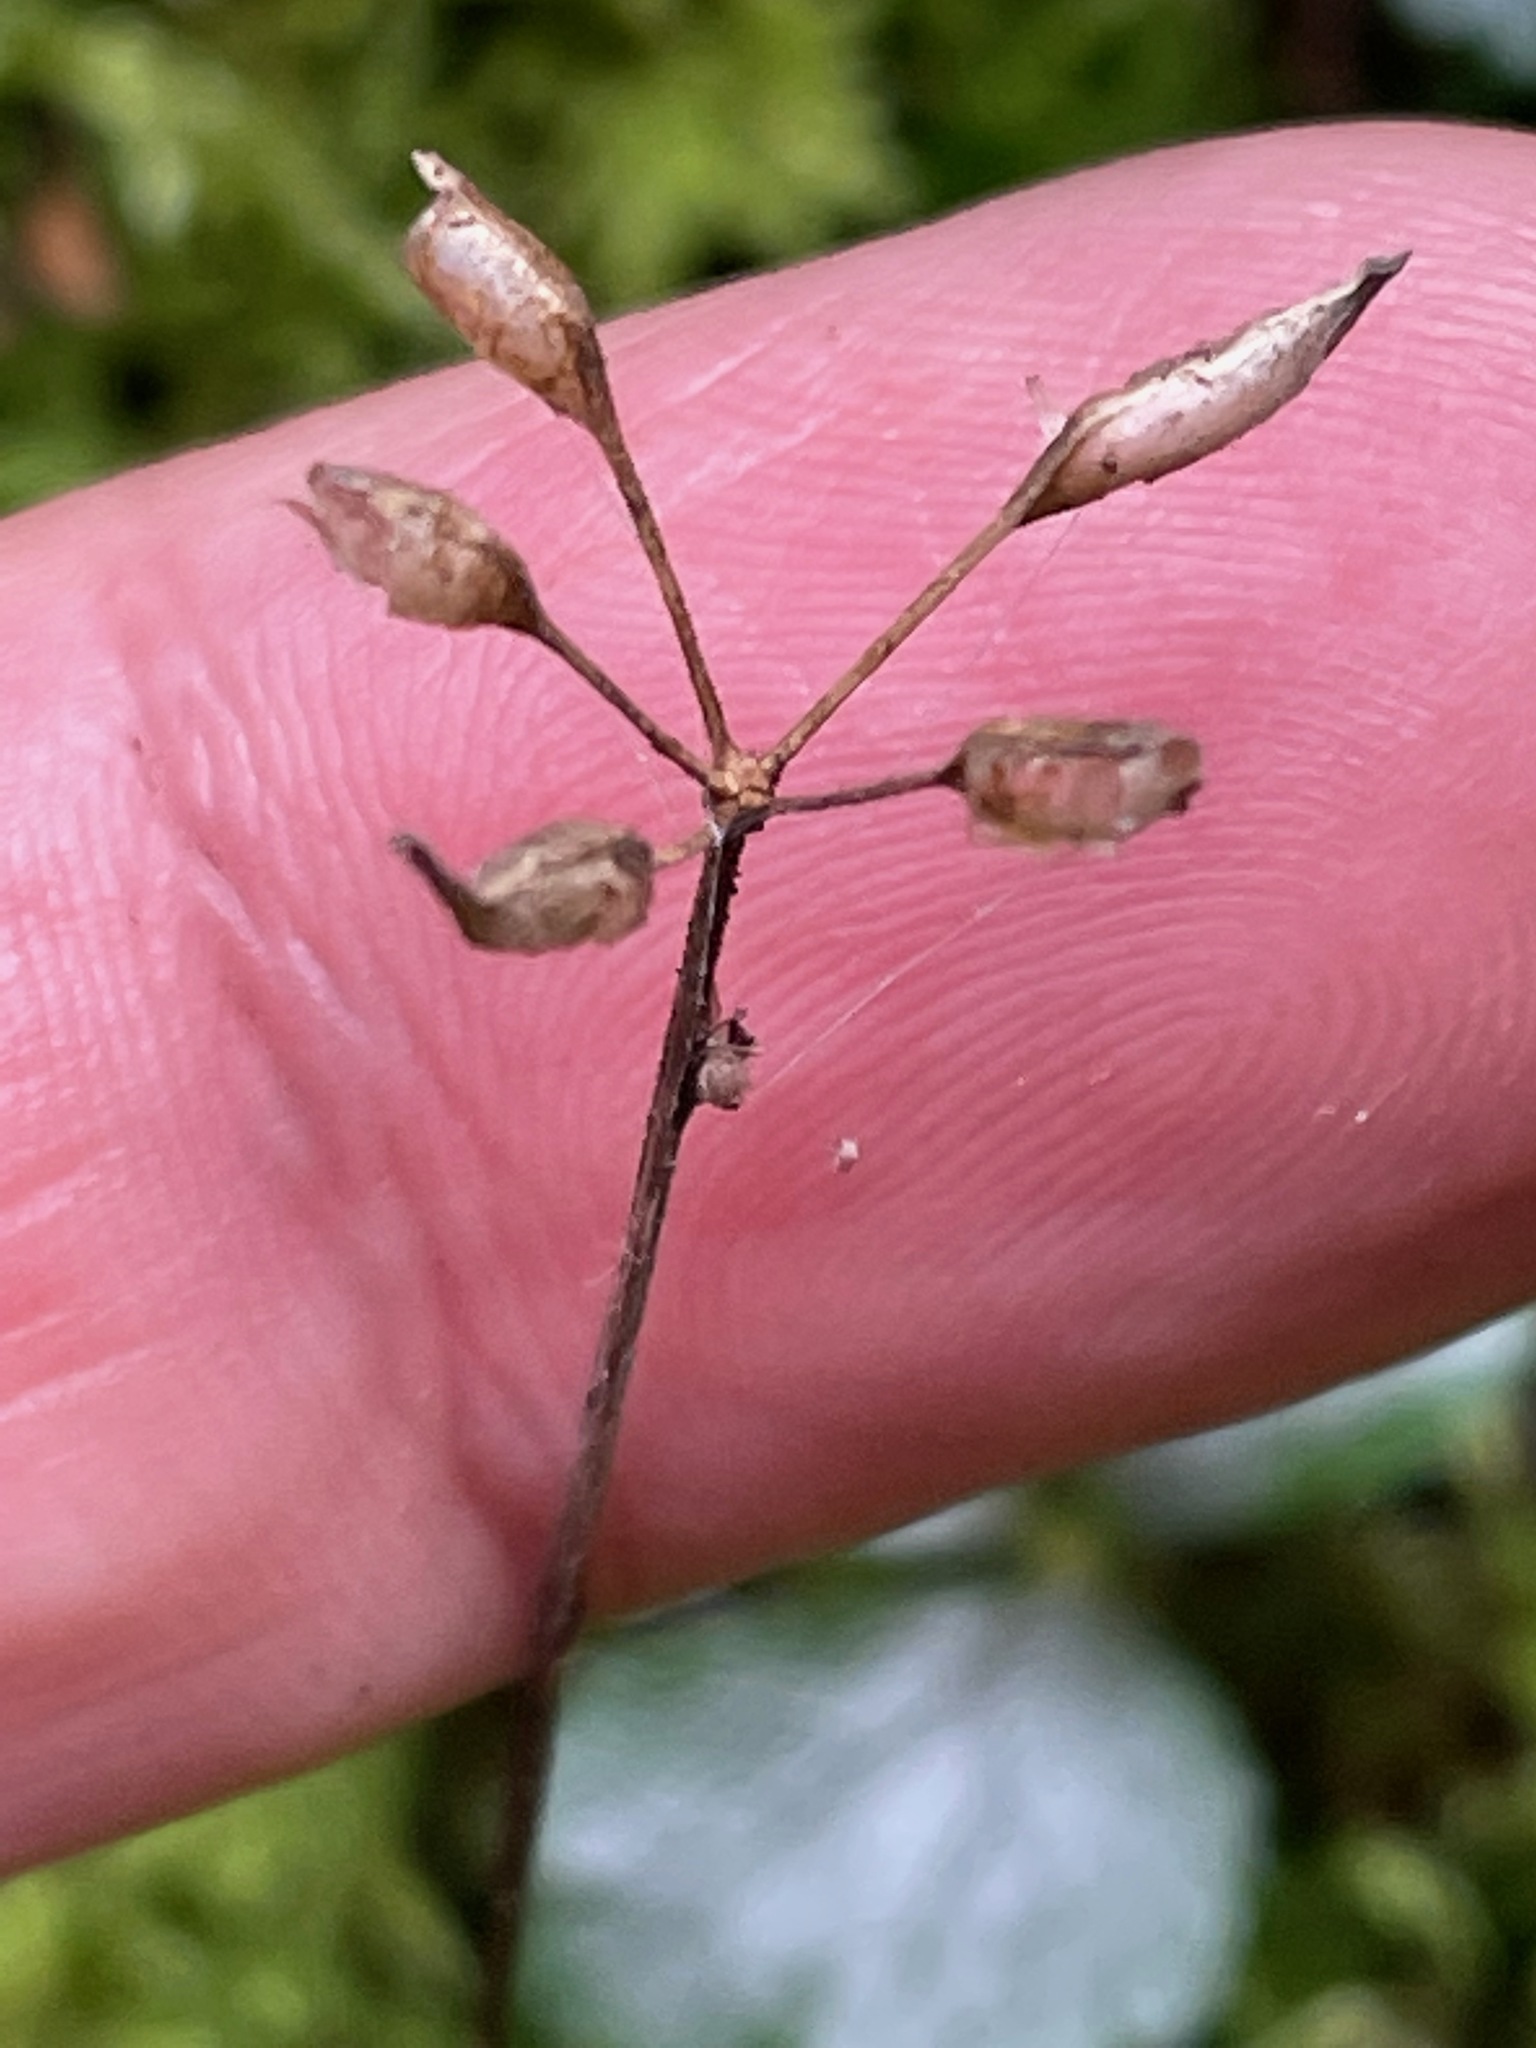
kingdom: Plantae
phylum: Tracheophyta
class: Magnoliopsida
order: Ranunculales
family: Ranunculaceae
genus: Coptis
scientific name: Coptis trifolia
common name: Canker-root
